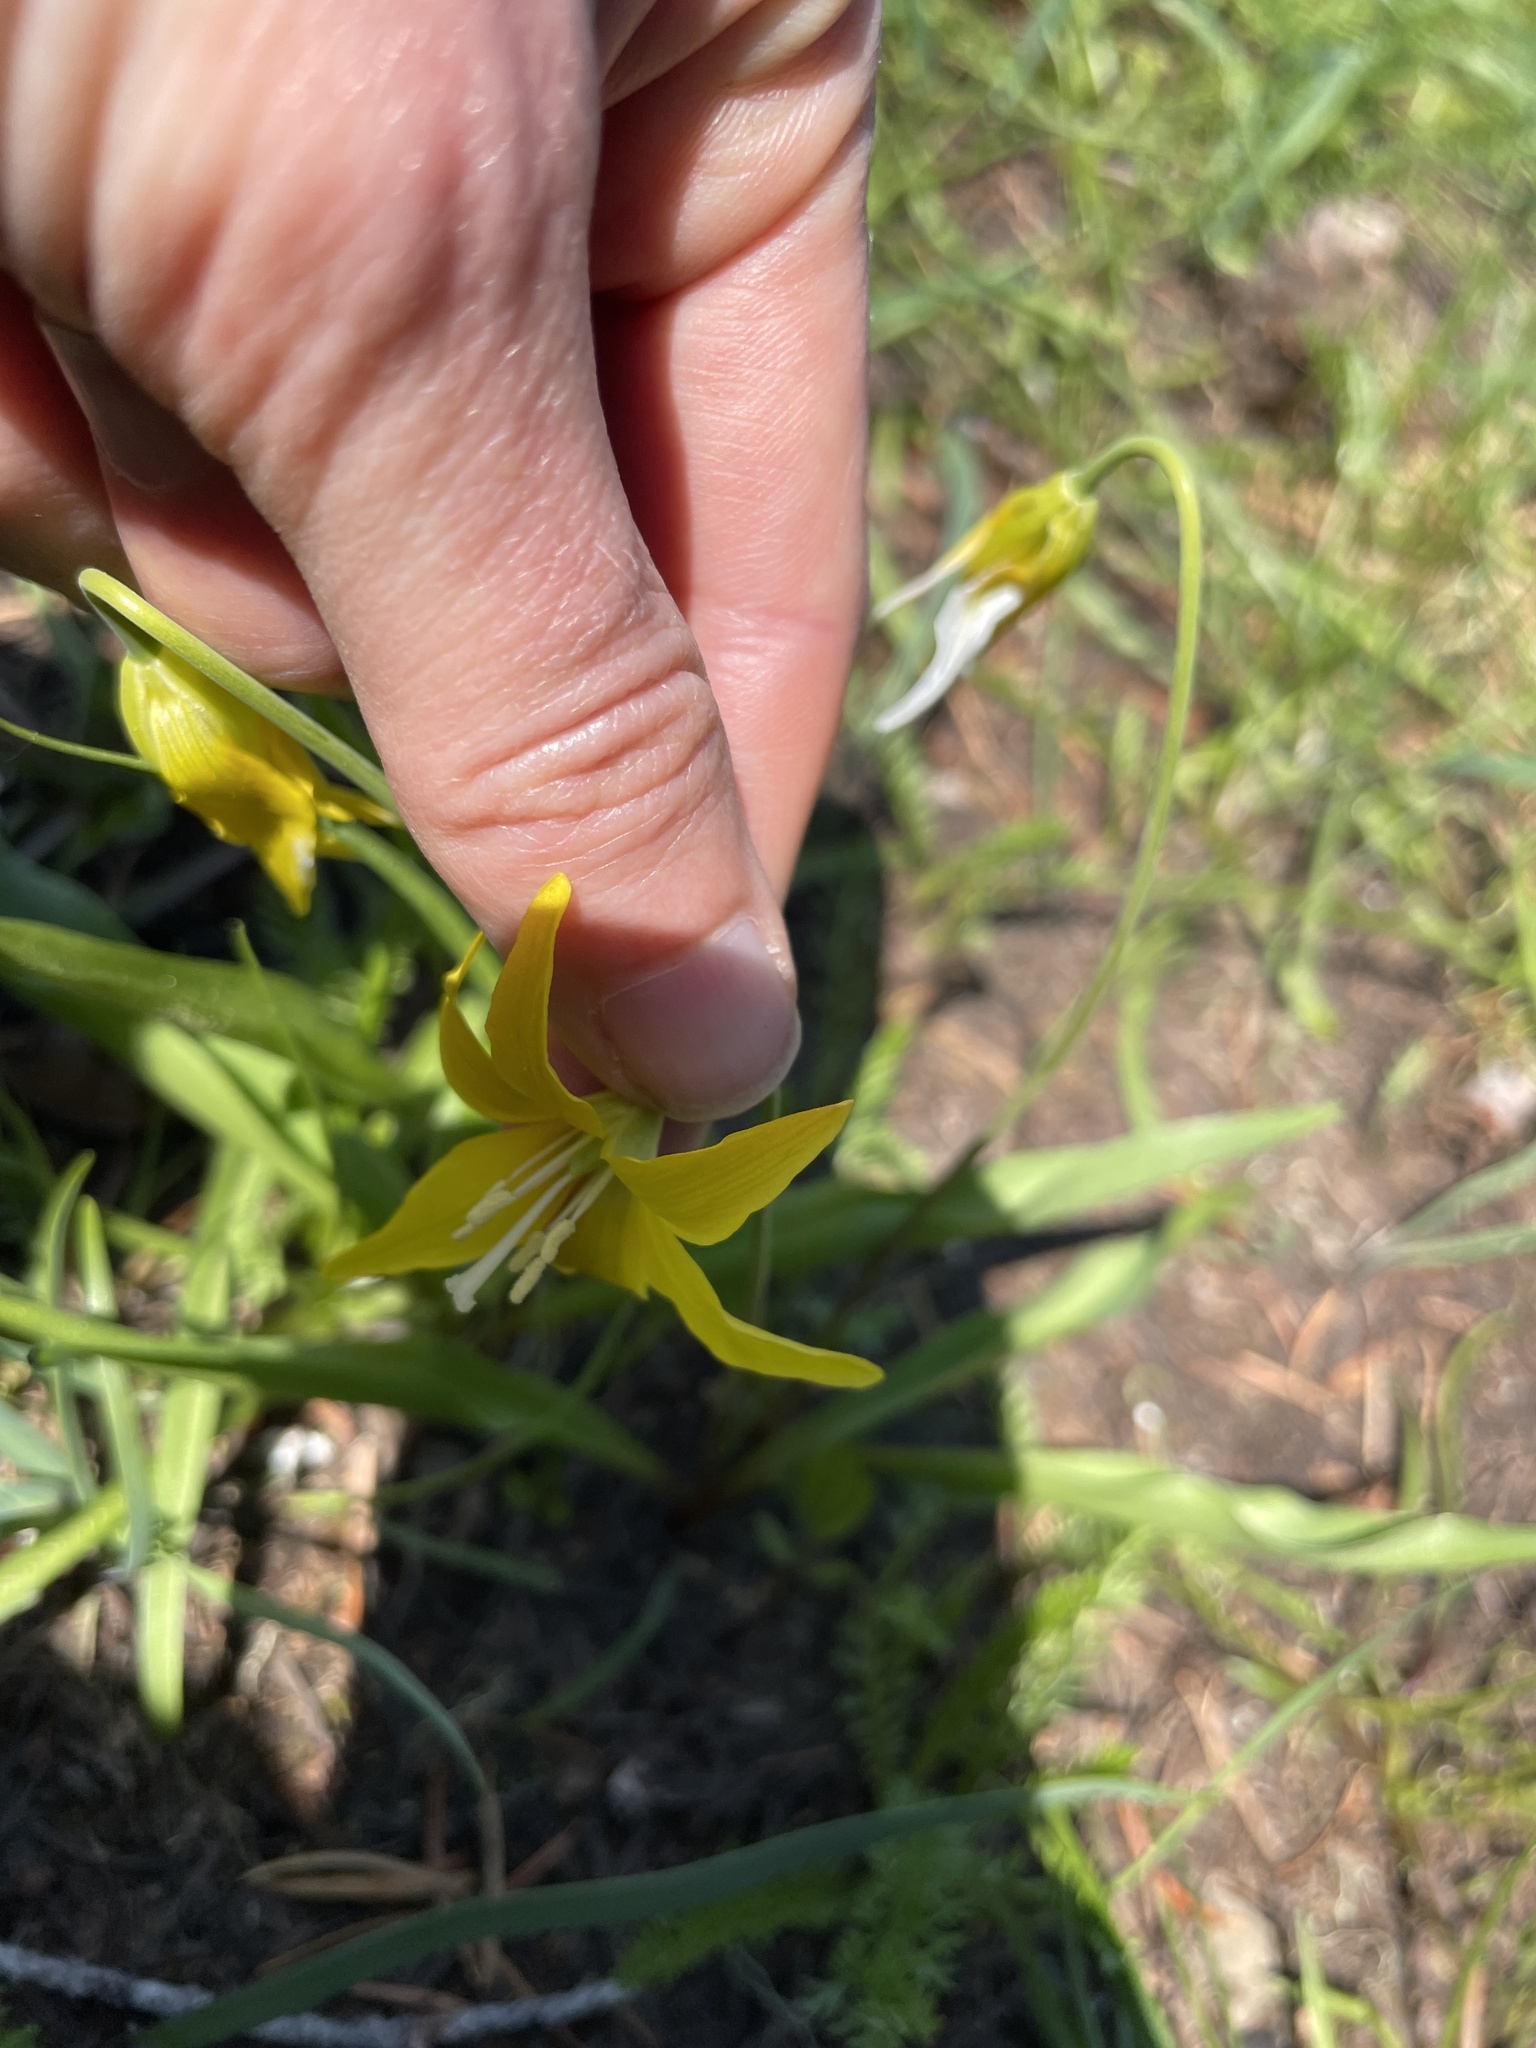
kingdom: Plantae
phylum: Tracheophyta
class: Liliopsida
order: Liliales
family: Liliaceae
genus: Erythronium
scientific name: Erythronium grandiflorum
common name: Avalanche-lily
